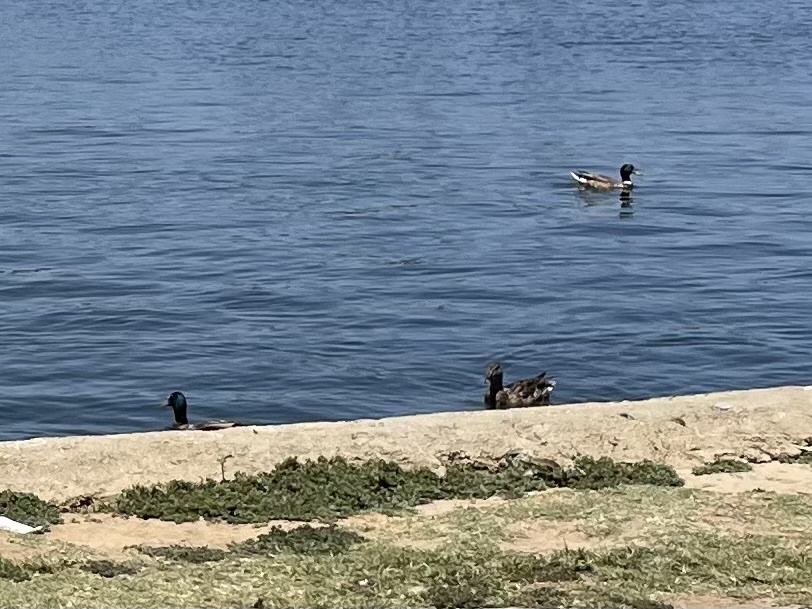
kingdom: Animalia
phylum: Chordata
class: Aves
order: Anseriformes
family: Anatidae
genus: Anas
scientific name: Anas platyrhynchos
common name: Mallard
